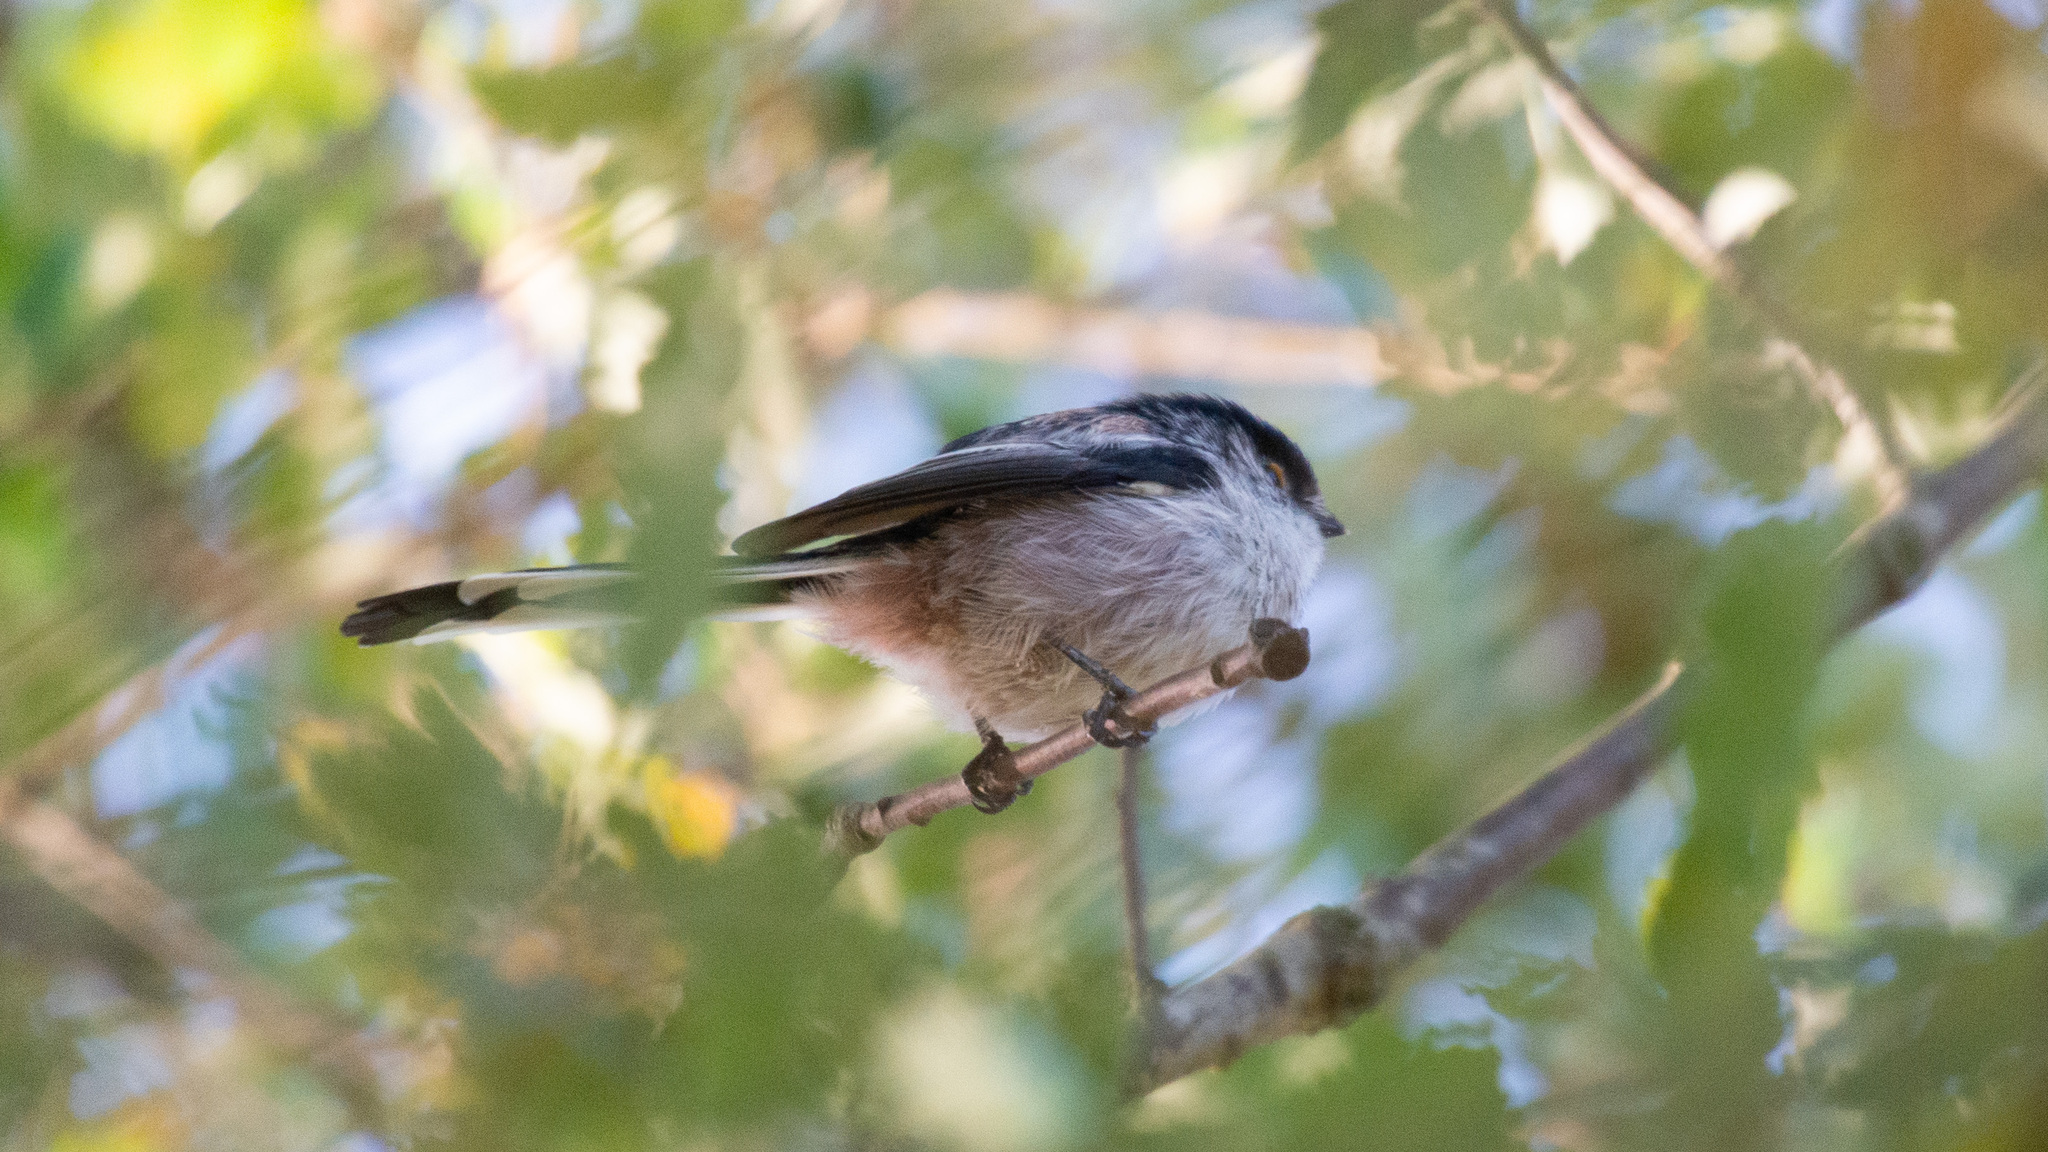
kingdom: Animalia
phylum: Chordata
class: Aves
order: Passeriformes
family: Aegithalidae
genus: Aegithalos
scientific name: Aegithalos caudatus
